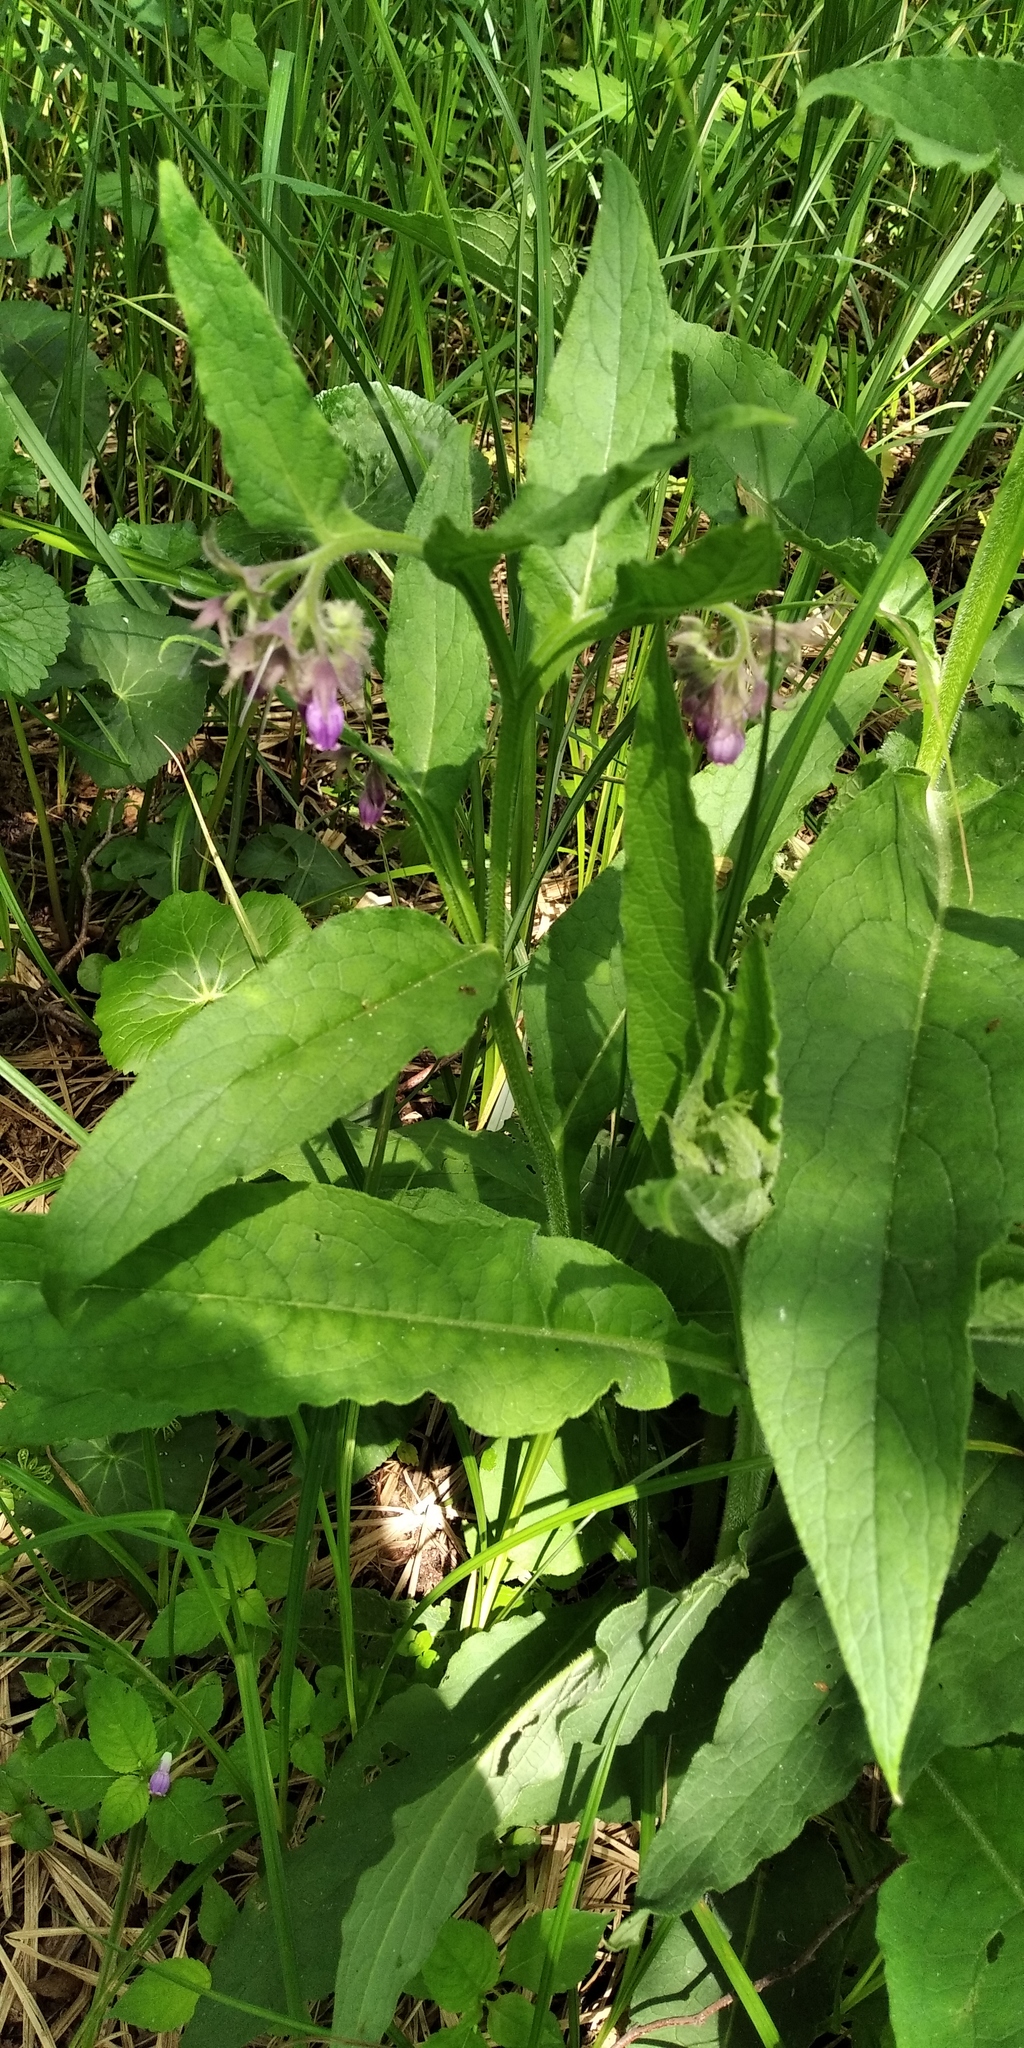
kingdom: Plantae
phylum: Tracheophyta
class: Magnoliopsida
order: Boraginales
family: Boraginaceae
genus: Symphytum
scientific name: Symphytum officinale
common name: Common comfrey
